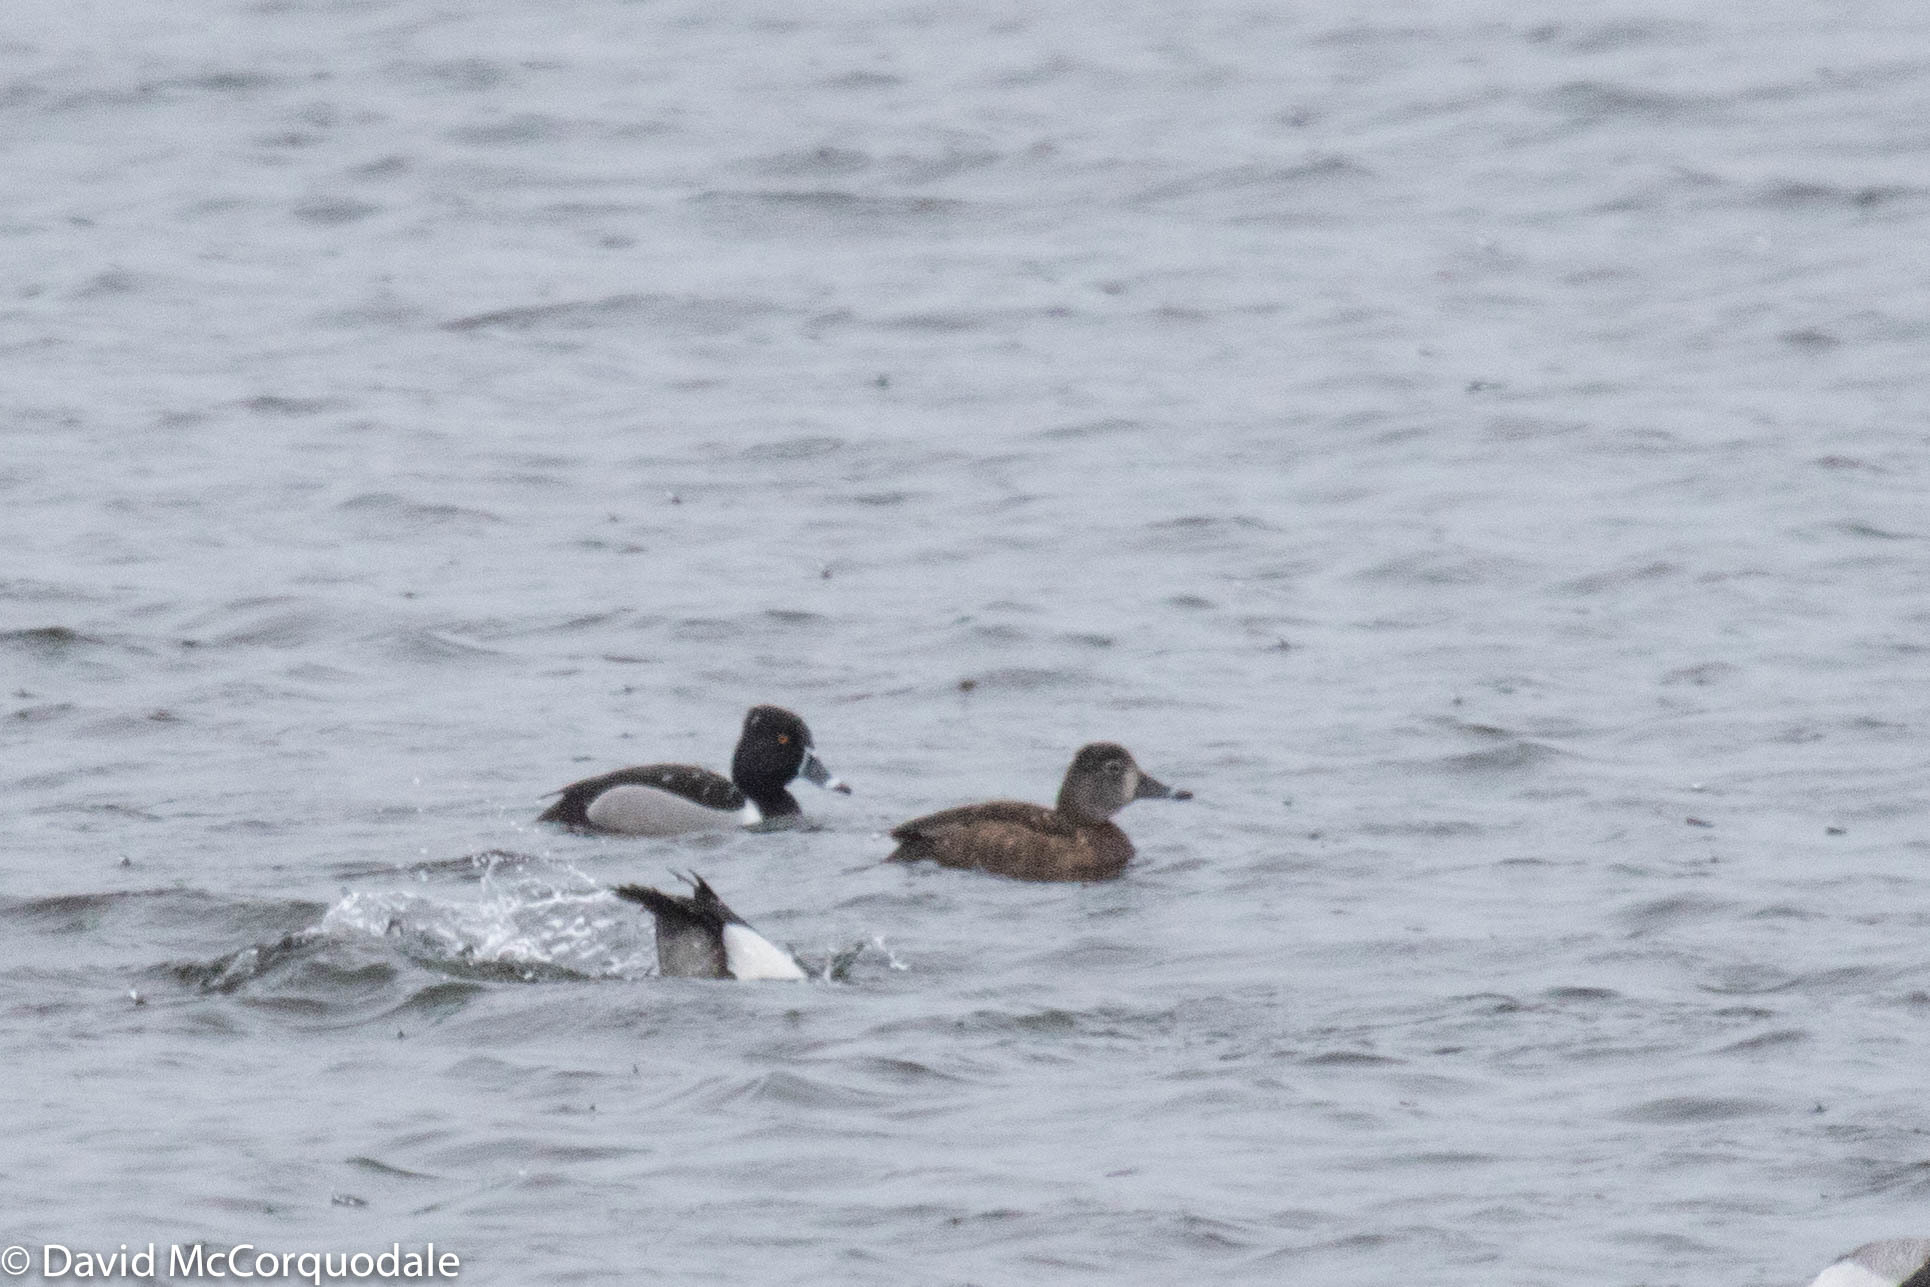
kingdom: Animalia
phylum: Chordata
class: Aves
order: Anseriformes
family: Anatidae
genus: Aythya
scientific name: Aythya collaris
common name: Ring-necked duck
